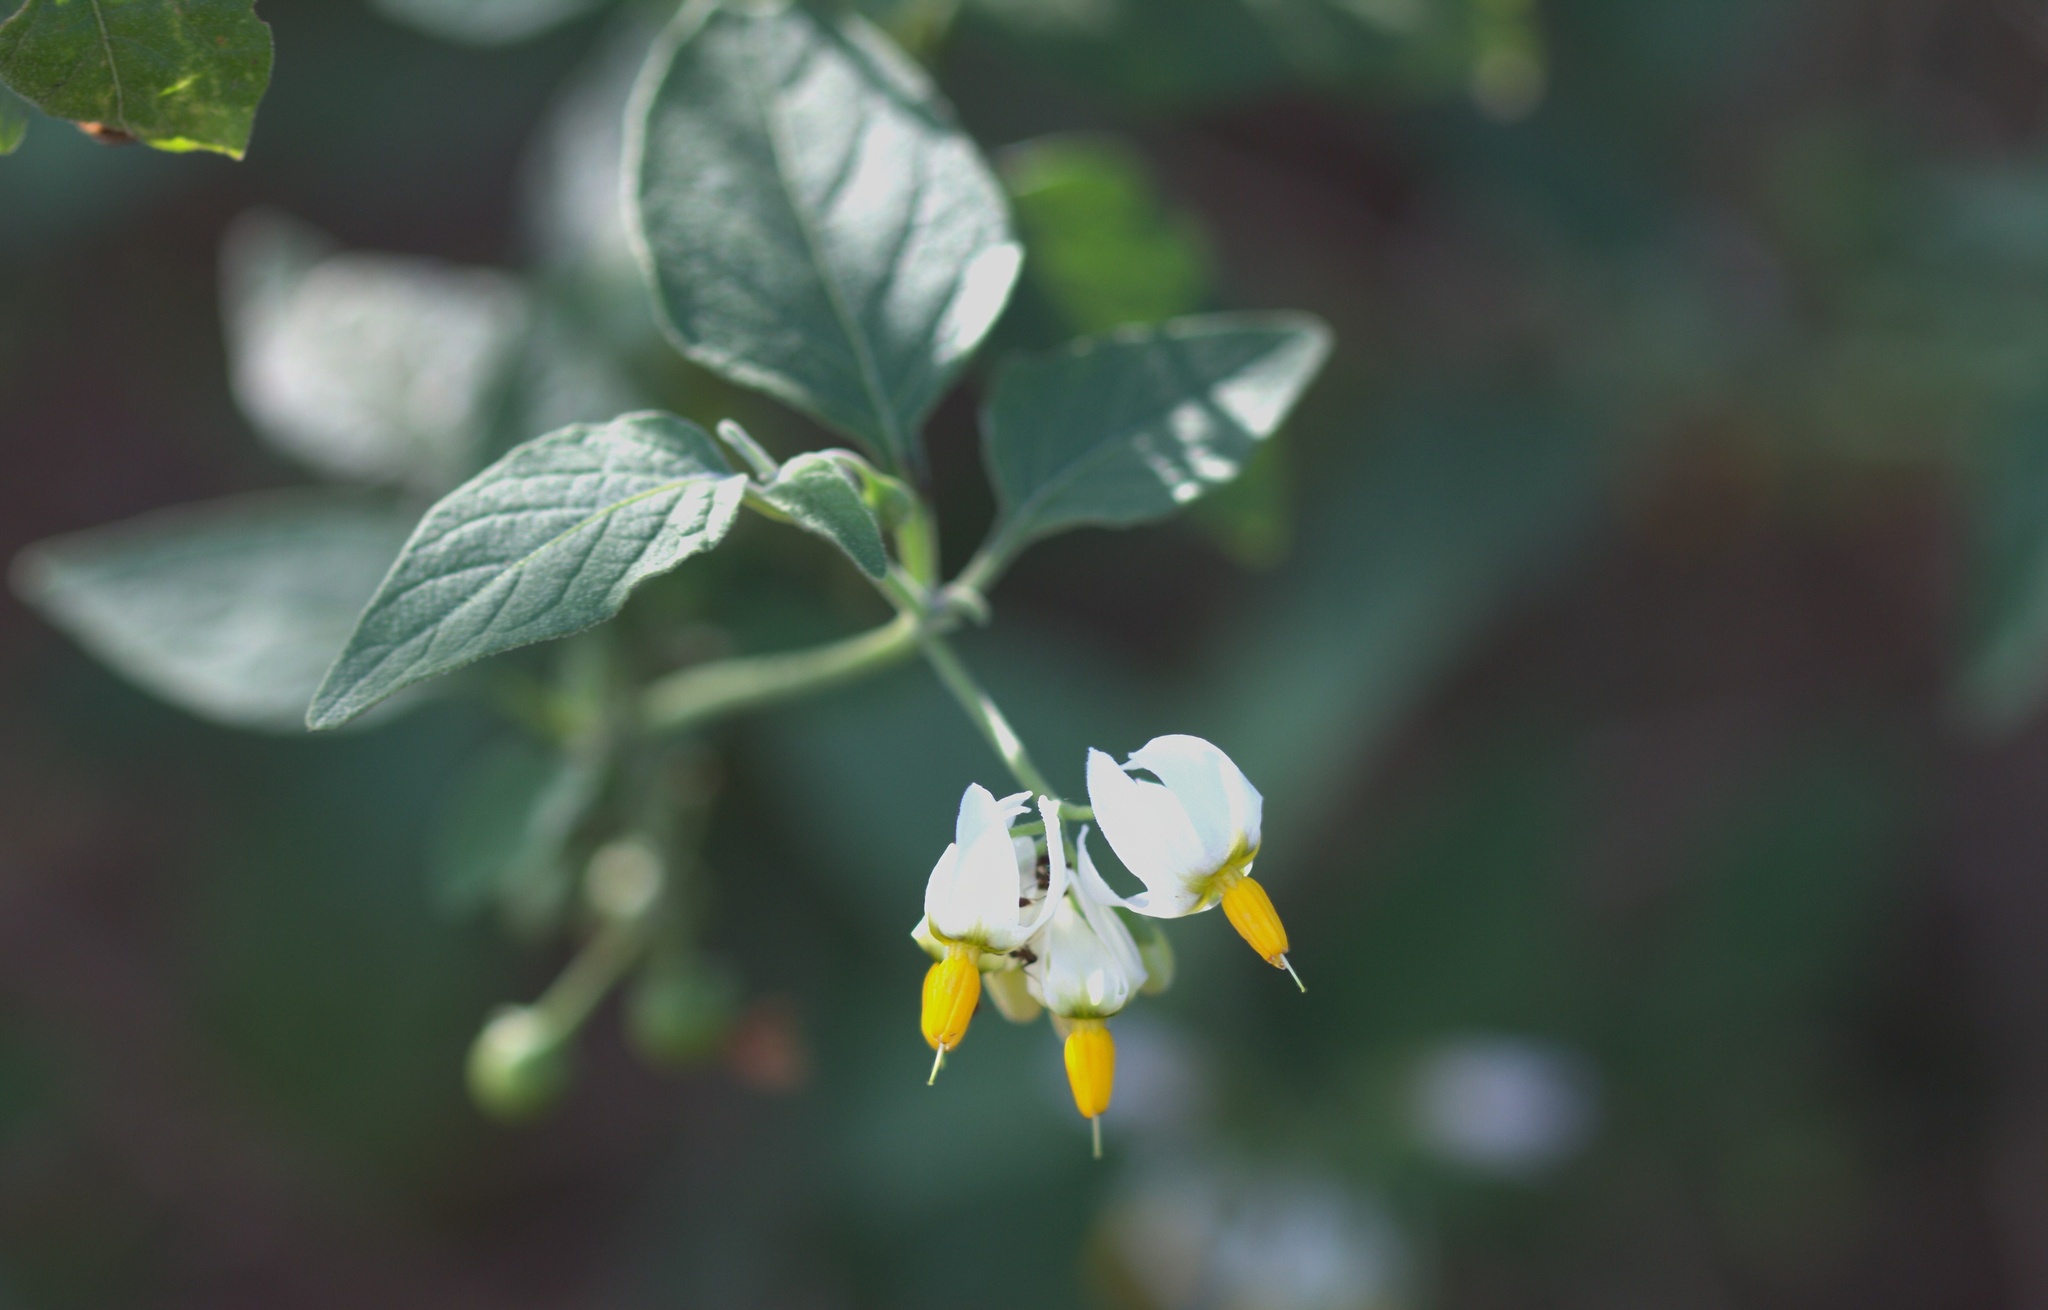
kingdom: Plantae
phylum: Tracheophyta
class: Magnoliopsida
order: Solanales
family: Solanaceae
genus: Solanum
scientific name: Solanum douglasii
